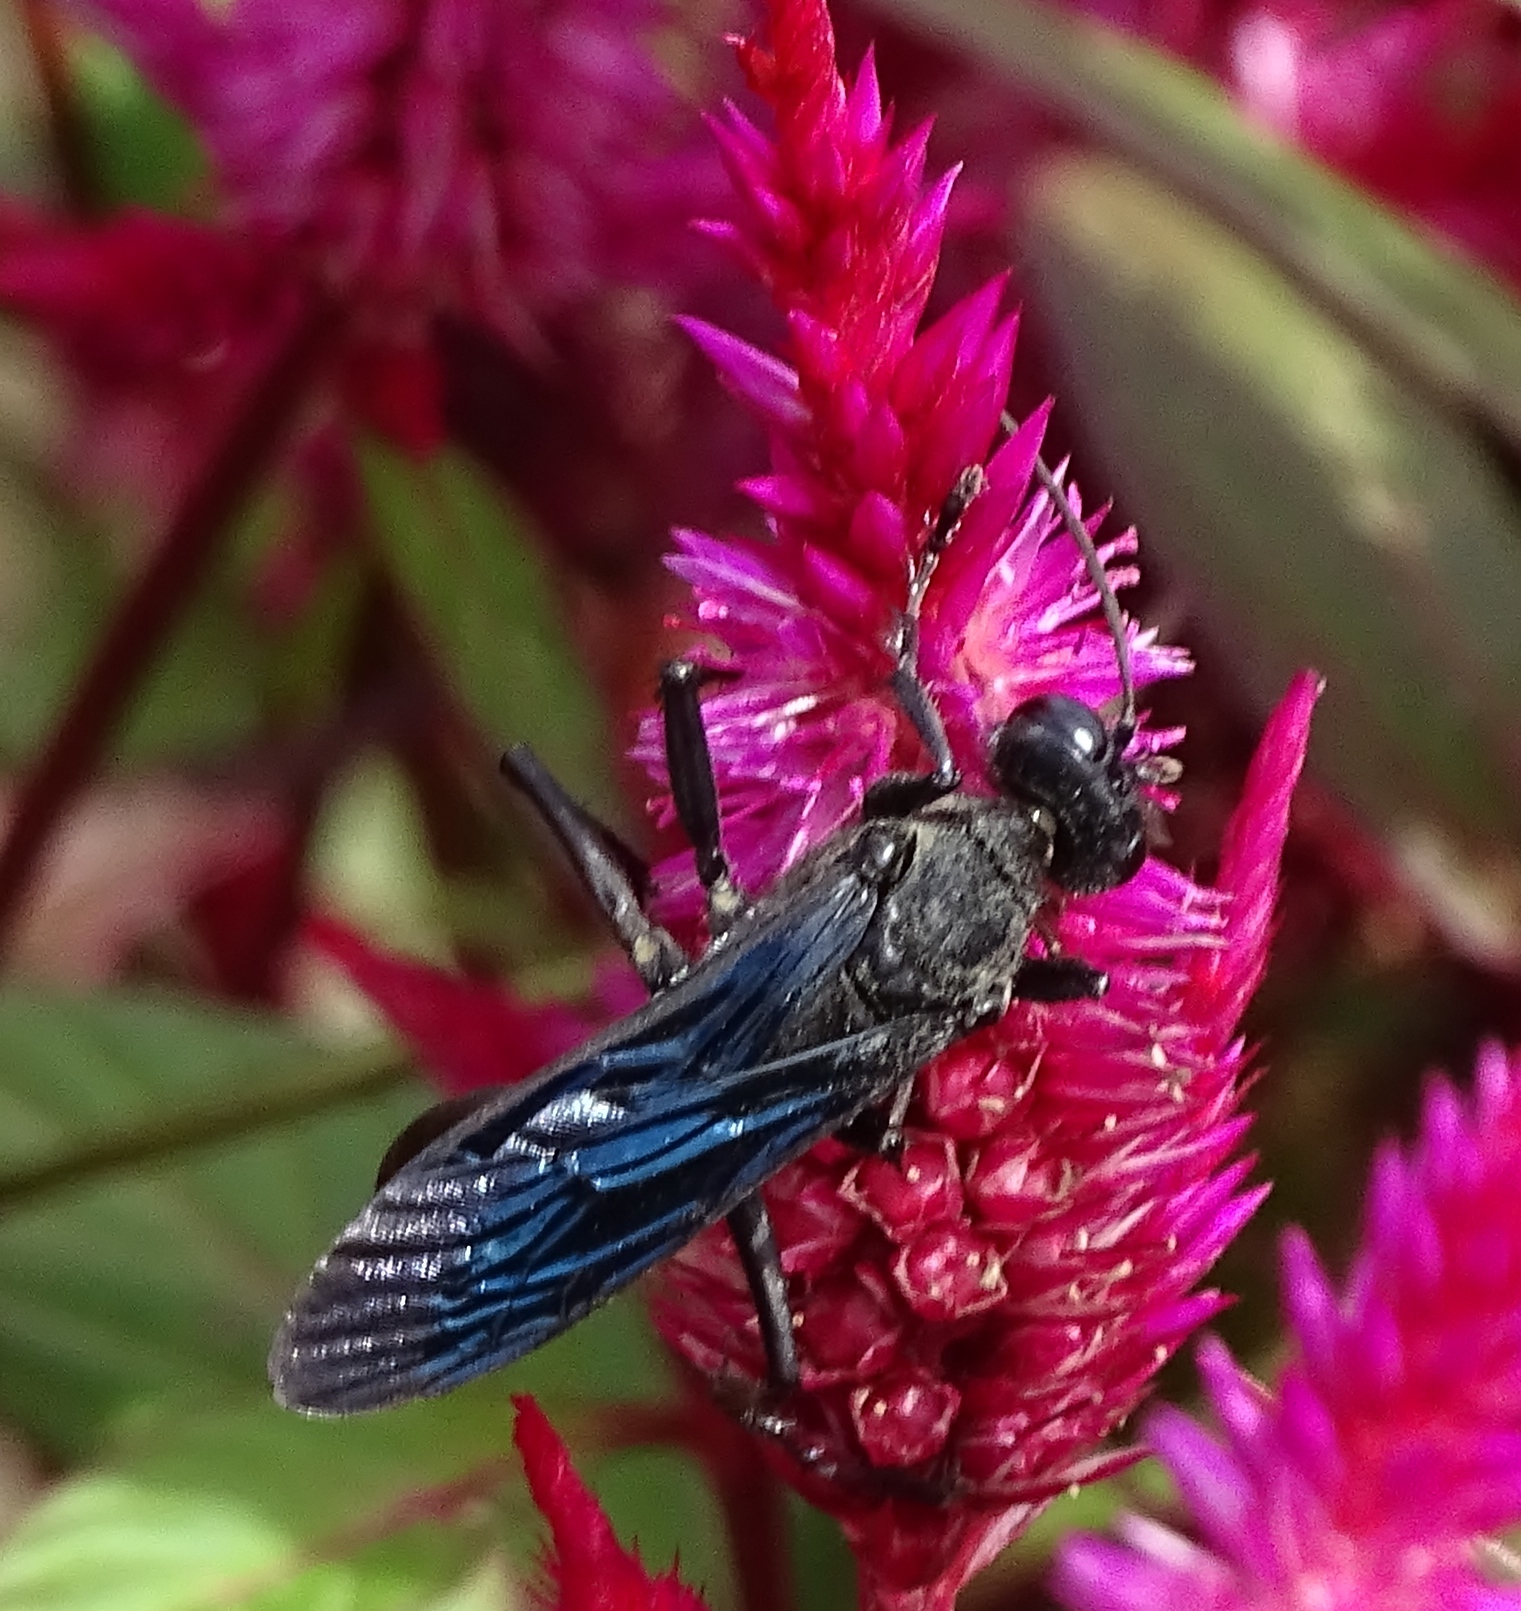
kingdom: Animalia
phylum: Arthropoda
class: Insecta
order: Hymenoptera
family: Sphecidae
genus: Sphex
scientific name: Sphex pensylvanicus
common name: Great black digger wasp
